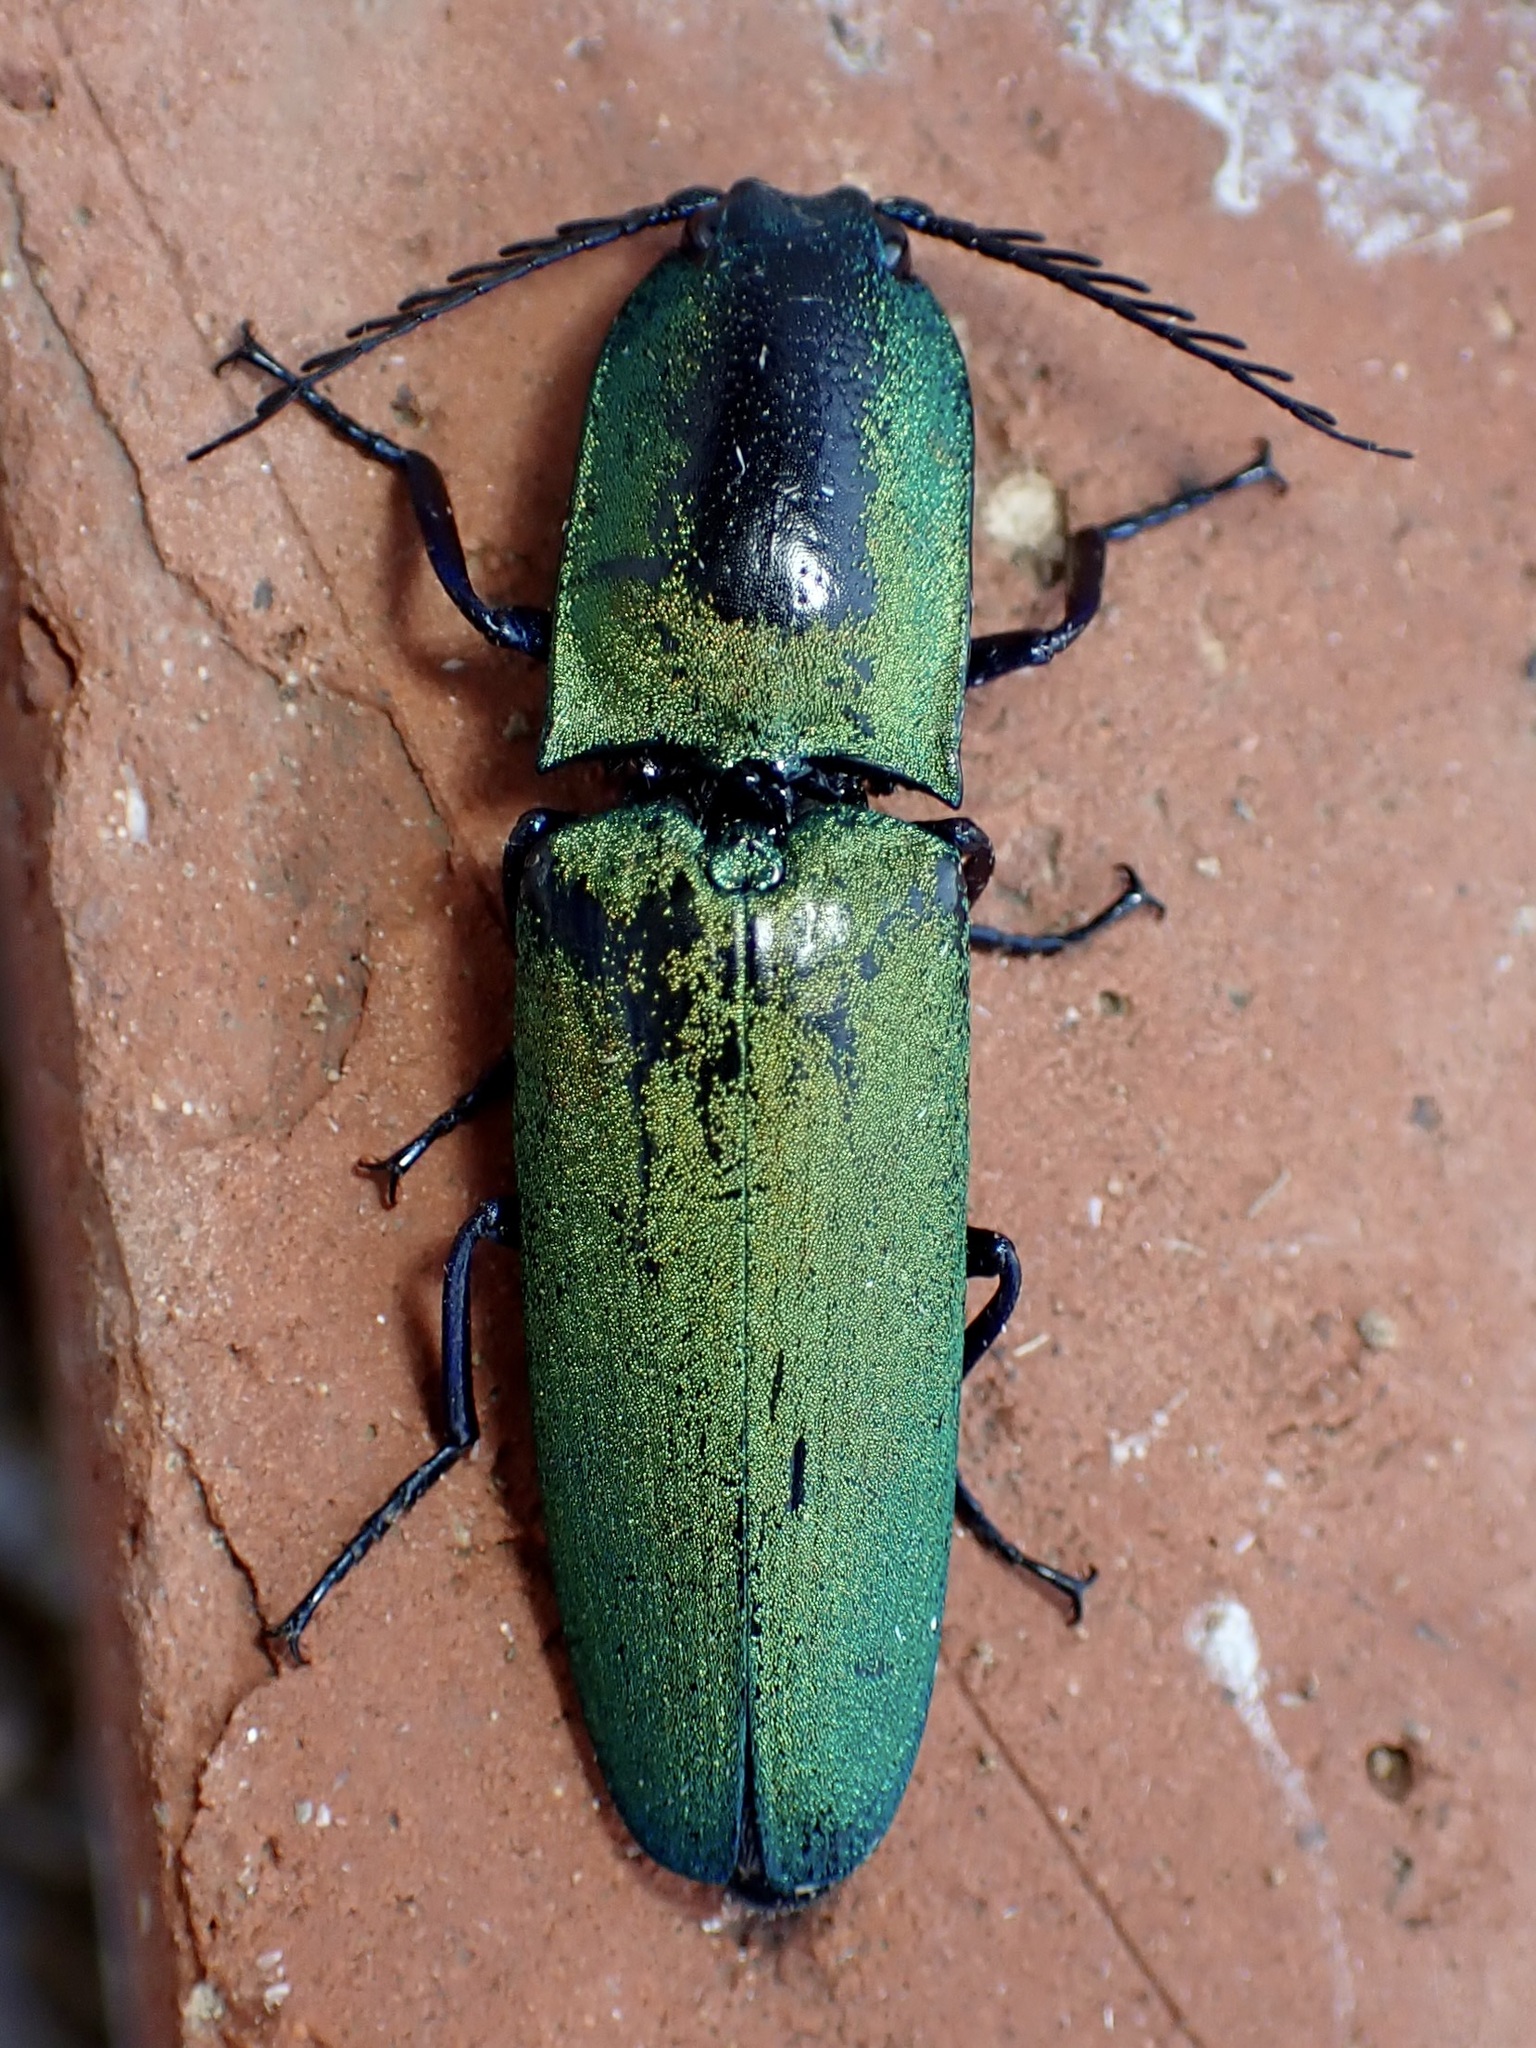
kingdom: Animalia
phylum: Arthropoda
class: Insecta
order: Coleoptera
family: Elateridae
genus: Chalcolepidius
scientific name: Chalcolepidius
